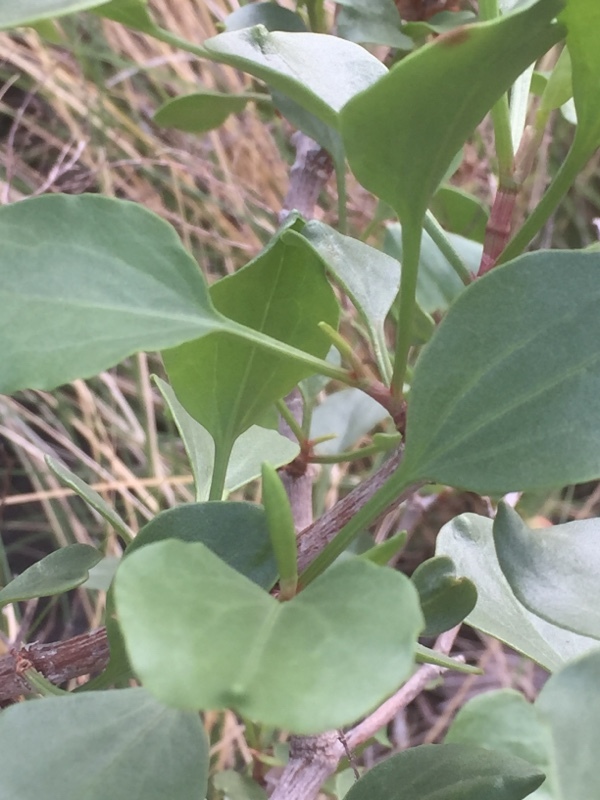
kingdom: Plantae
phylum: Tracheophyta
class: Magnoliopsida
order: Caryophyllales
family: Polygonaceae
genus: Rumex
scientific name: Rumex lunaria
